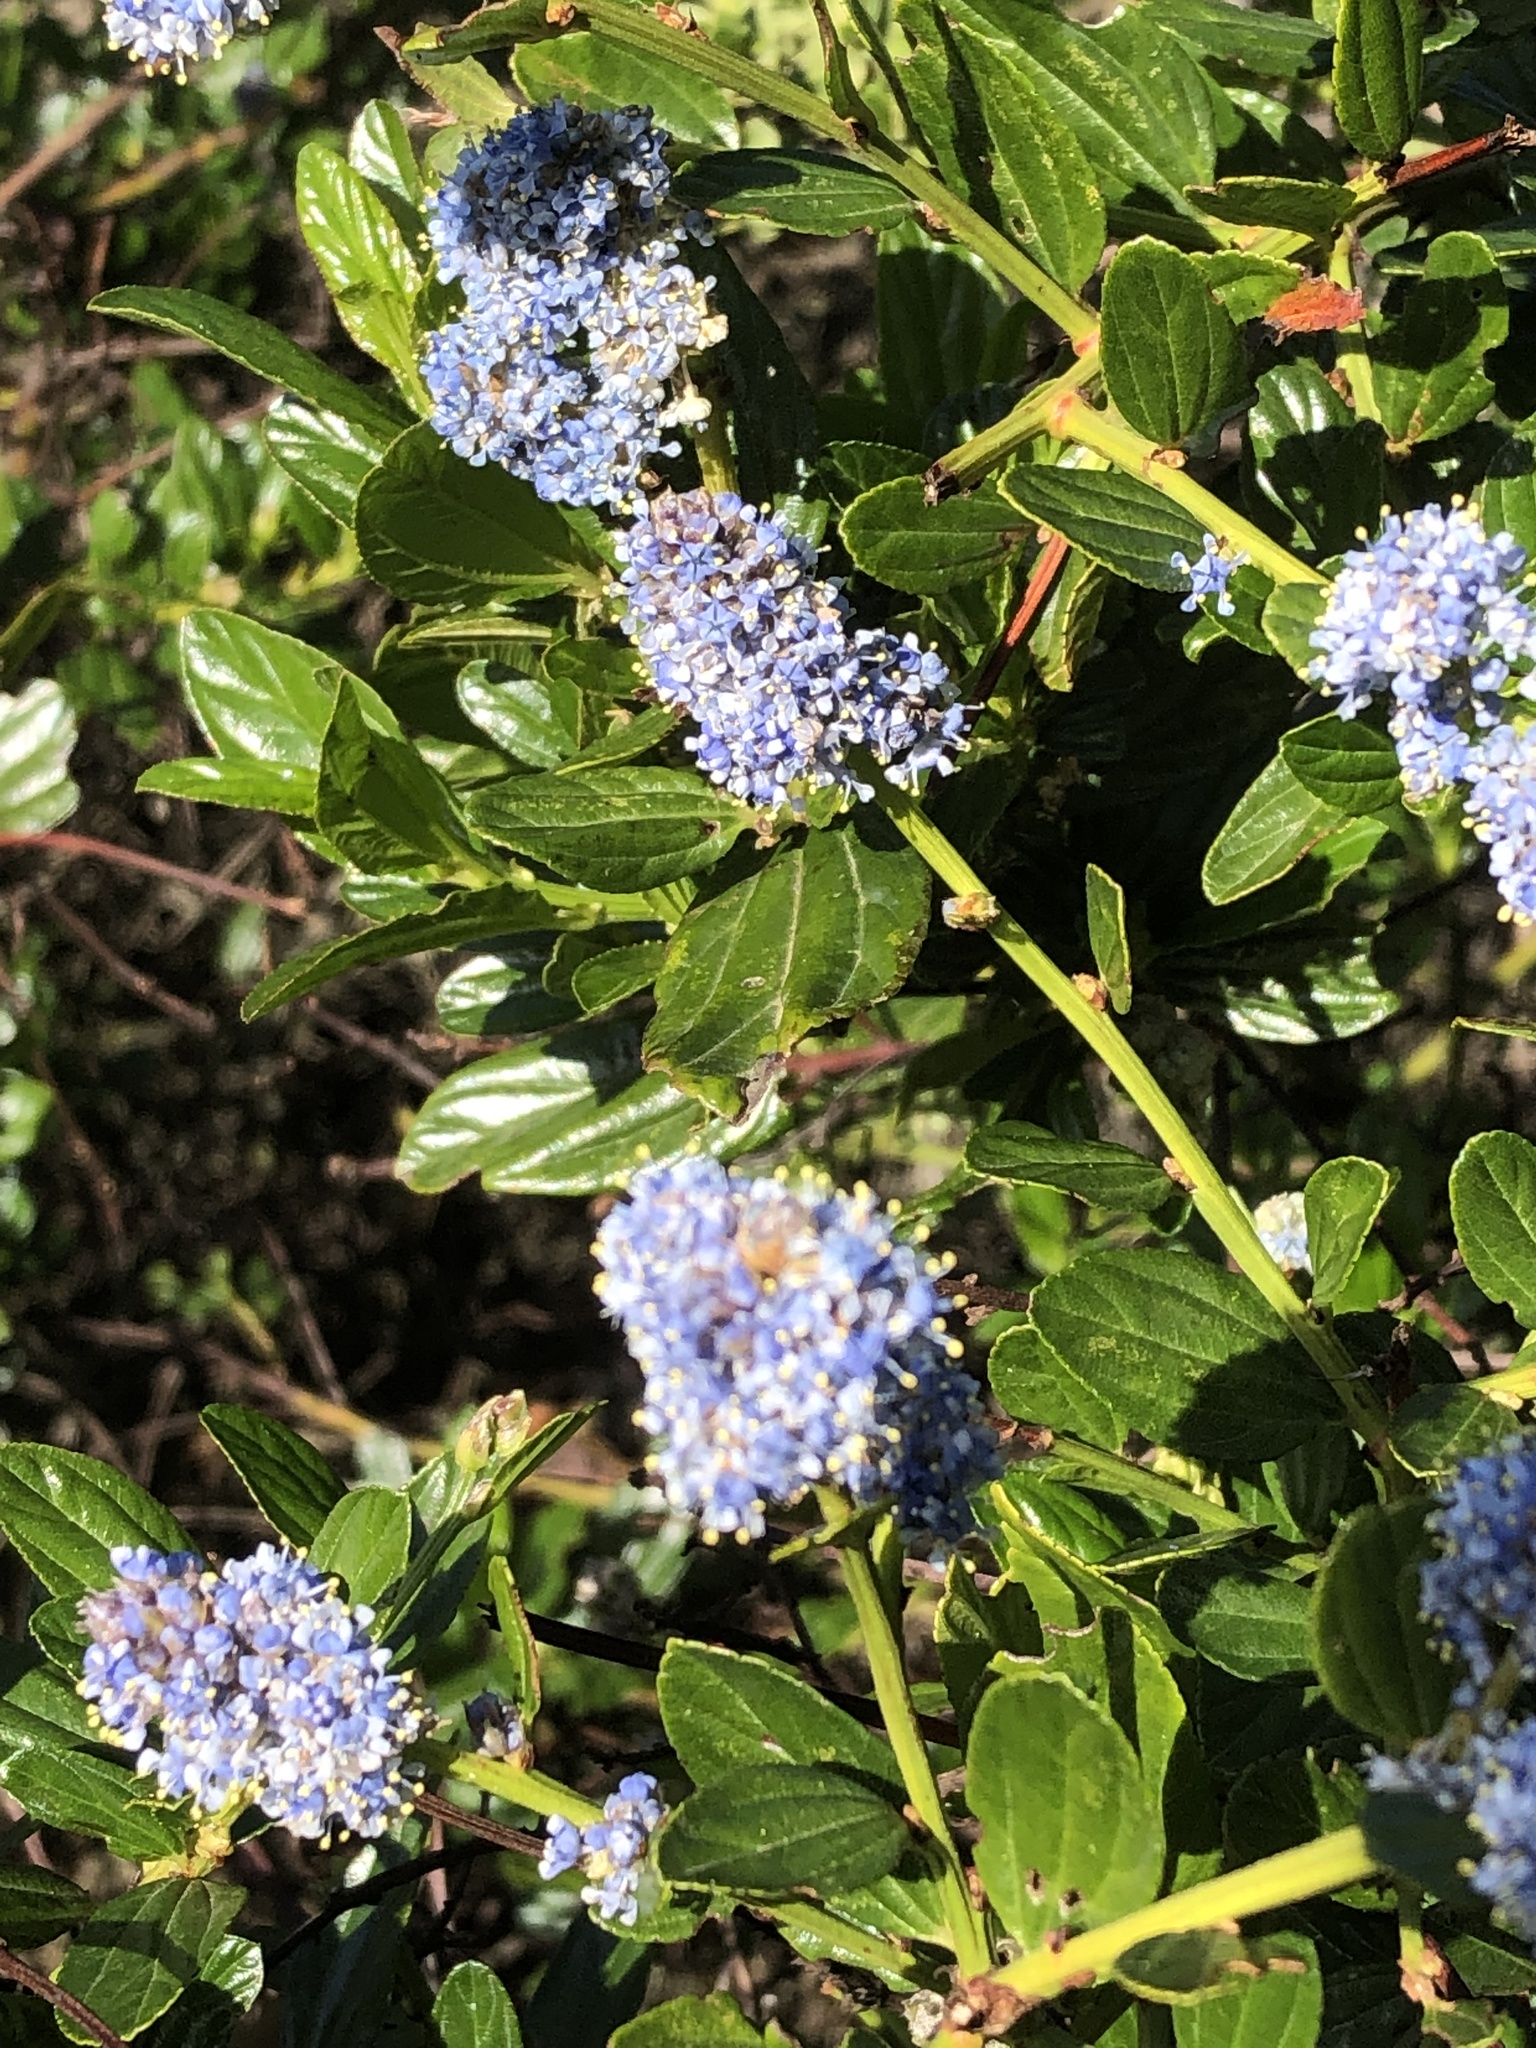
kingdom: Plantae
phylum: Tracheophyta
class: Magnoliopsida
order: Rosales
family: Rhamnaceae
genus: Ceanothus
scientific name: Ceanothus thyrsiflorus
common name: California-lilac
